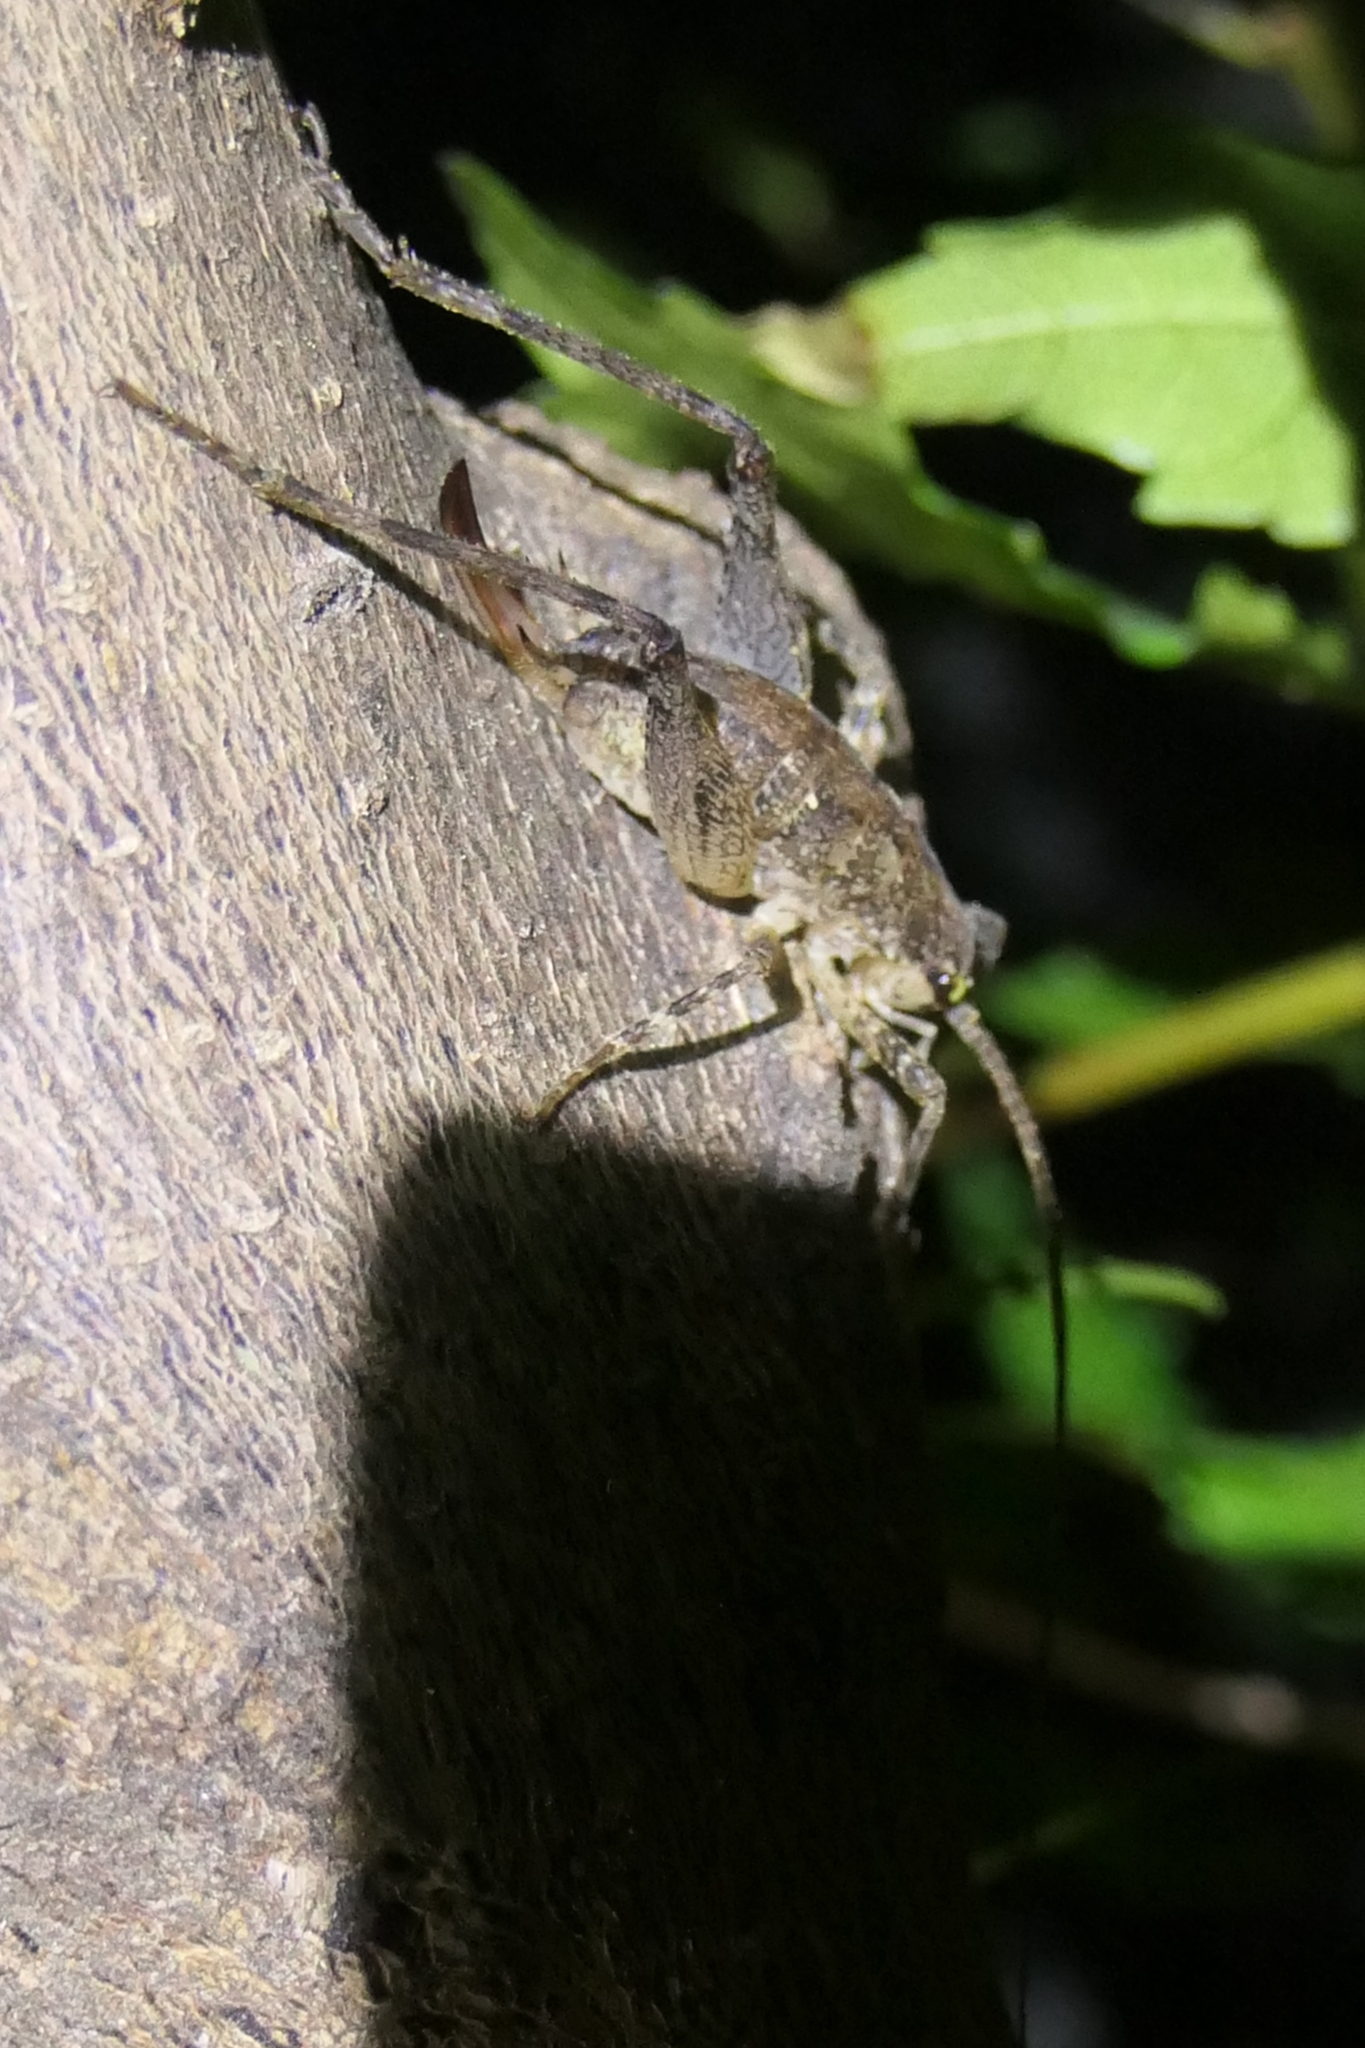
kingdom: Animalia
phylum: Arthropoda
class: Insecta
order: Orthoptera
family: Rhaphidophoridae
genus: Isoplectron
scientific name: Isoplectron armatum
